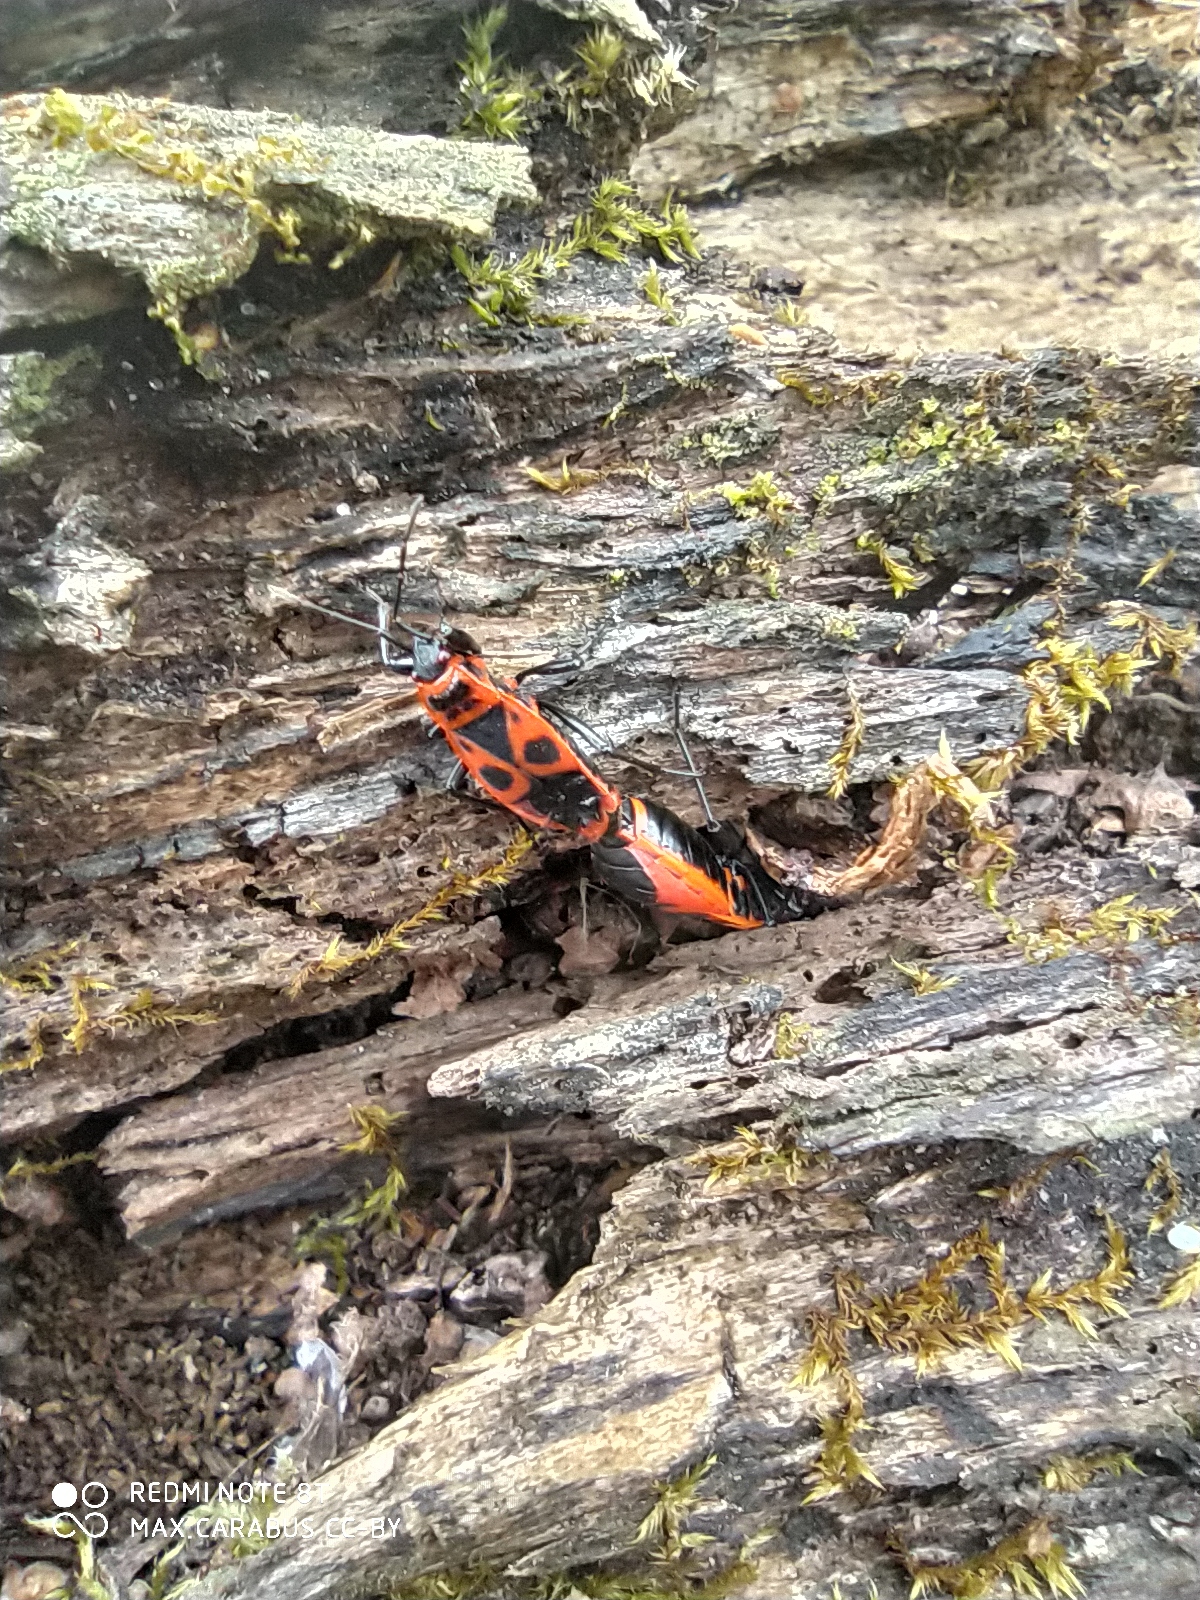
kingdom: Animalia
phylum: Arthropoda
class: Insecta
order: Hemiptera
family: Pyrrhocoridae
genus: Pyrrhocoris
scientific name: Pyrrhocoris apterus
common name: Firebug
